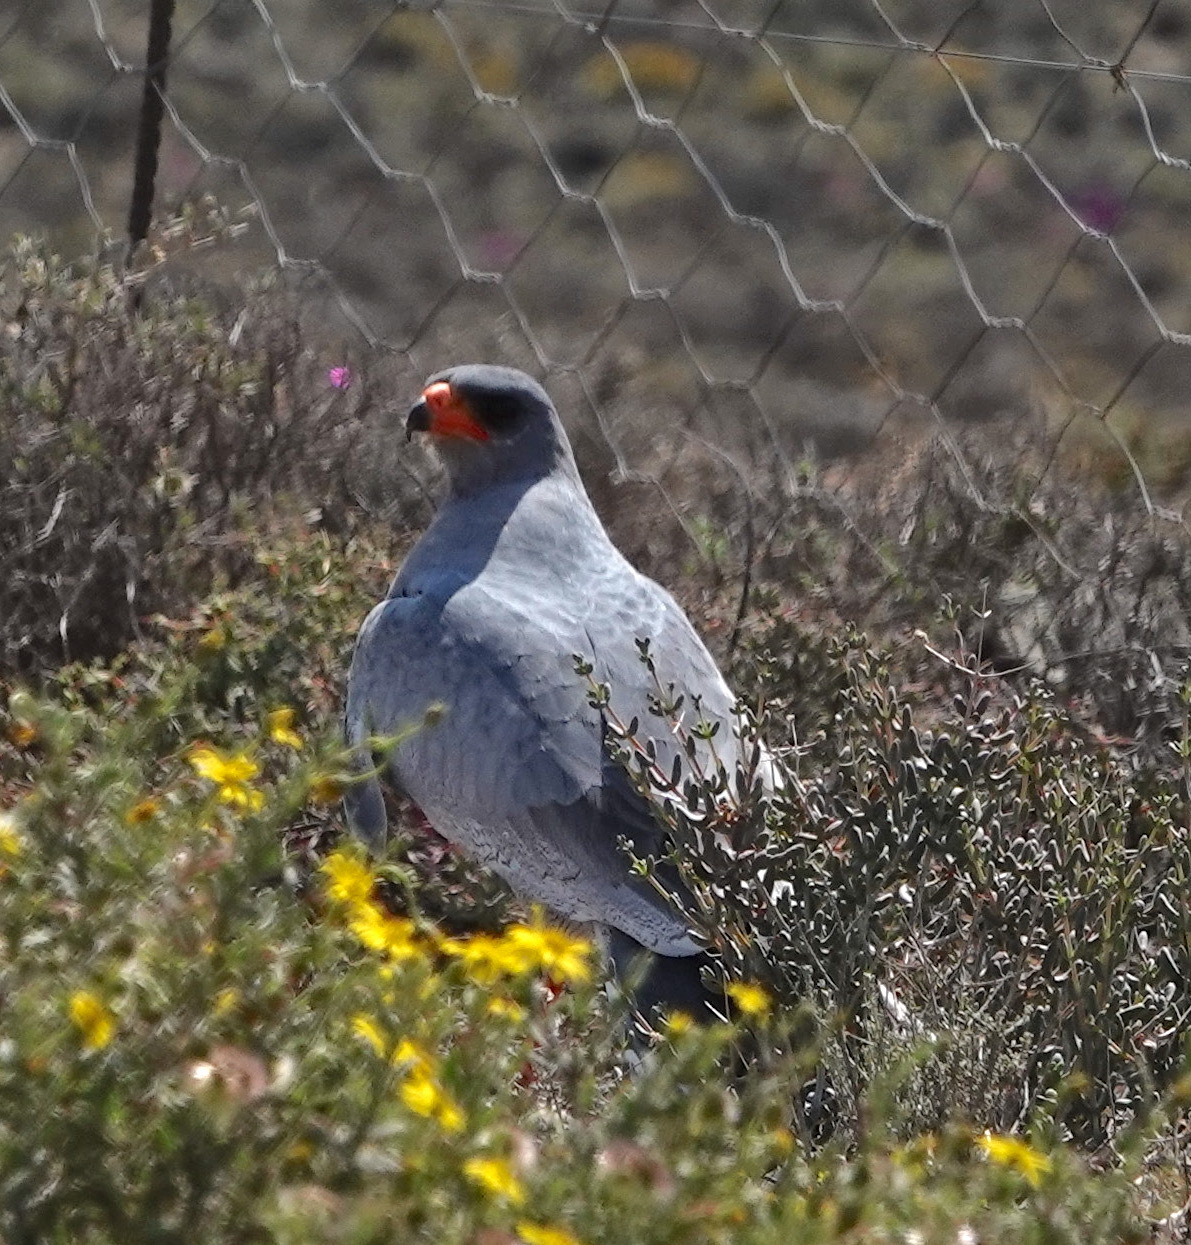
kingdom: Animalia
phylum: Chordata
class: Aves
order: Accipitriformes
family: Accipitridae
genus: Melierax
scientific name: Melierax canorus
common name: Pale chanting-goshawk
